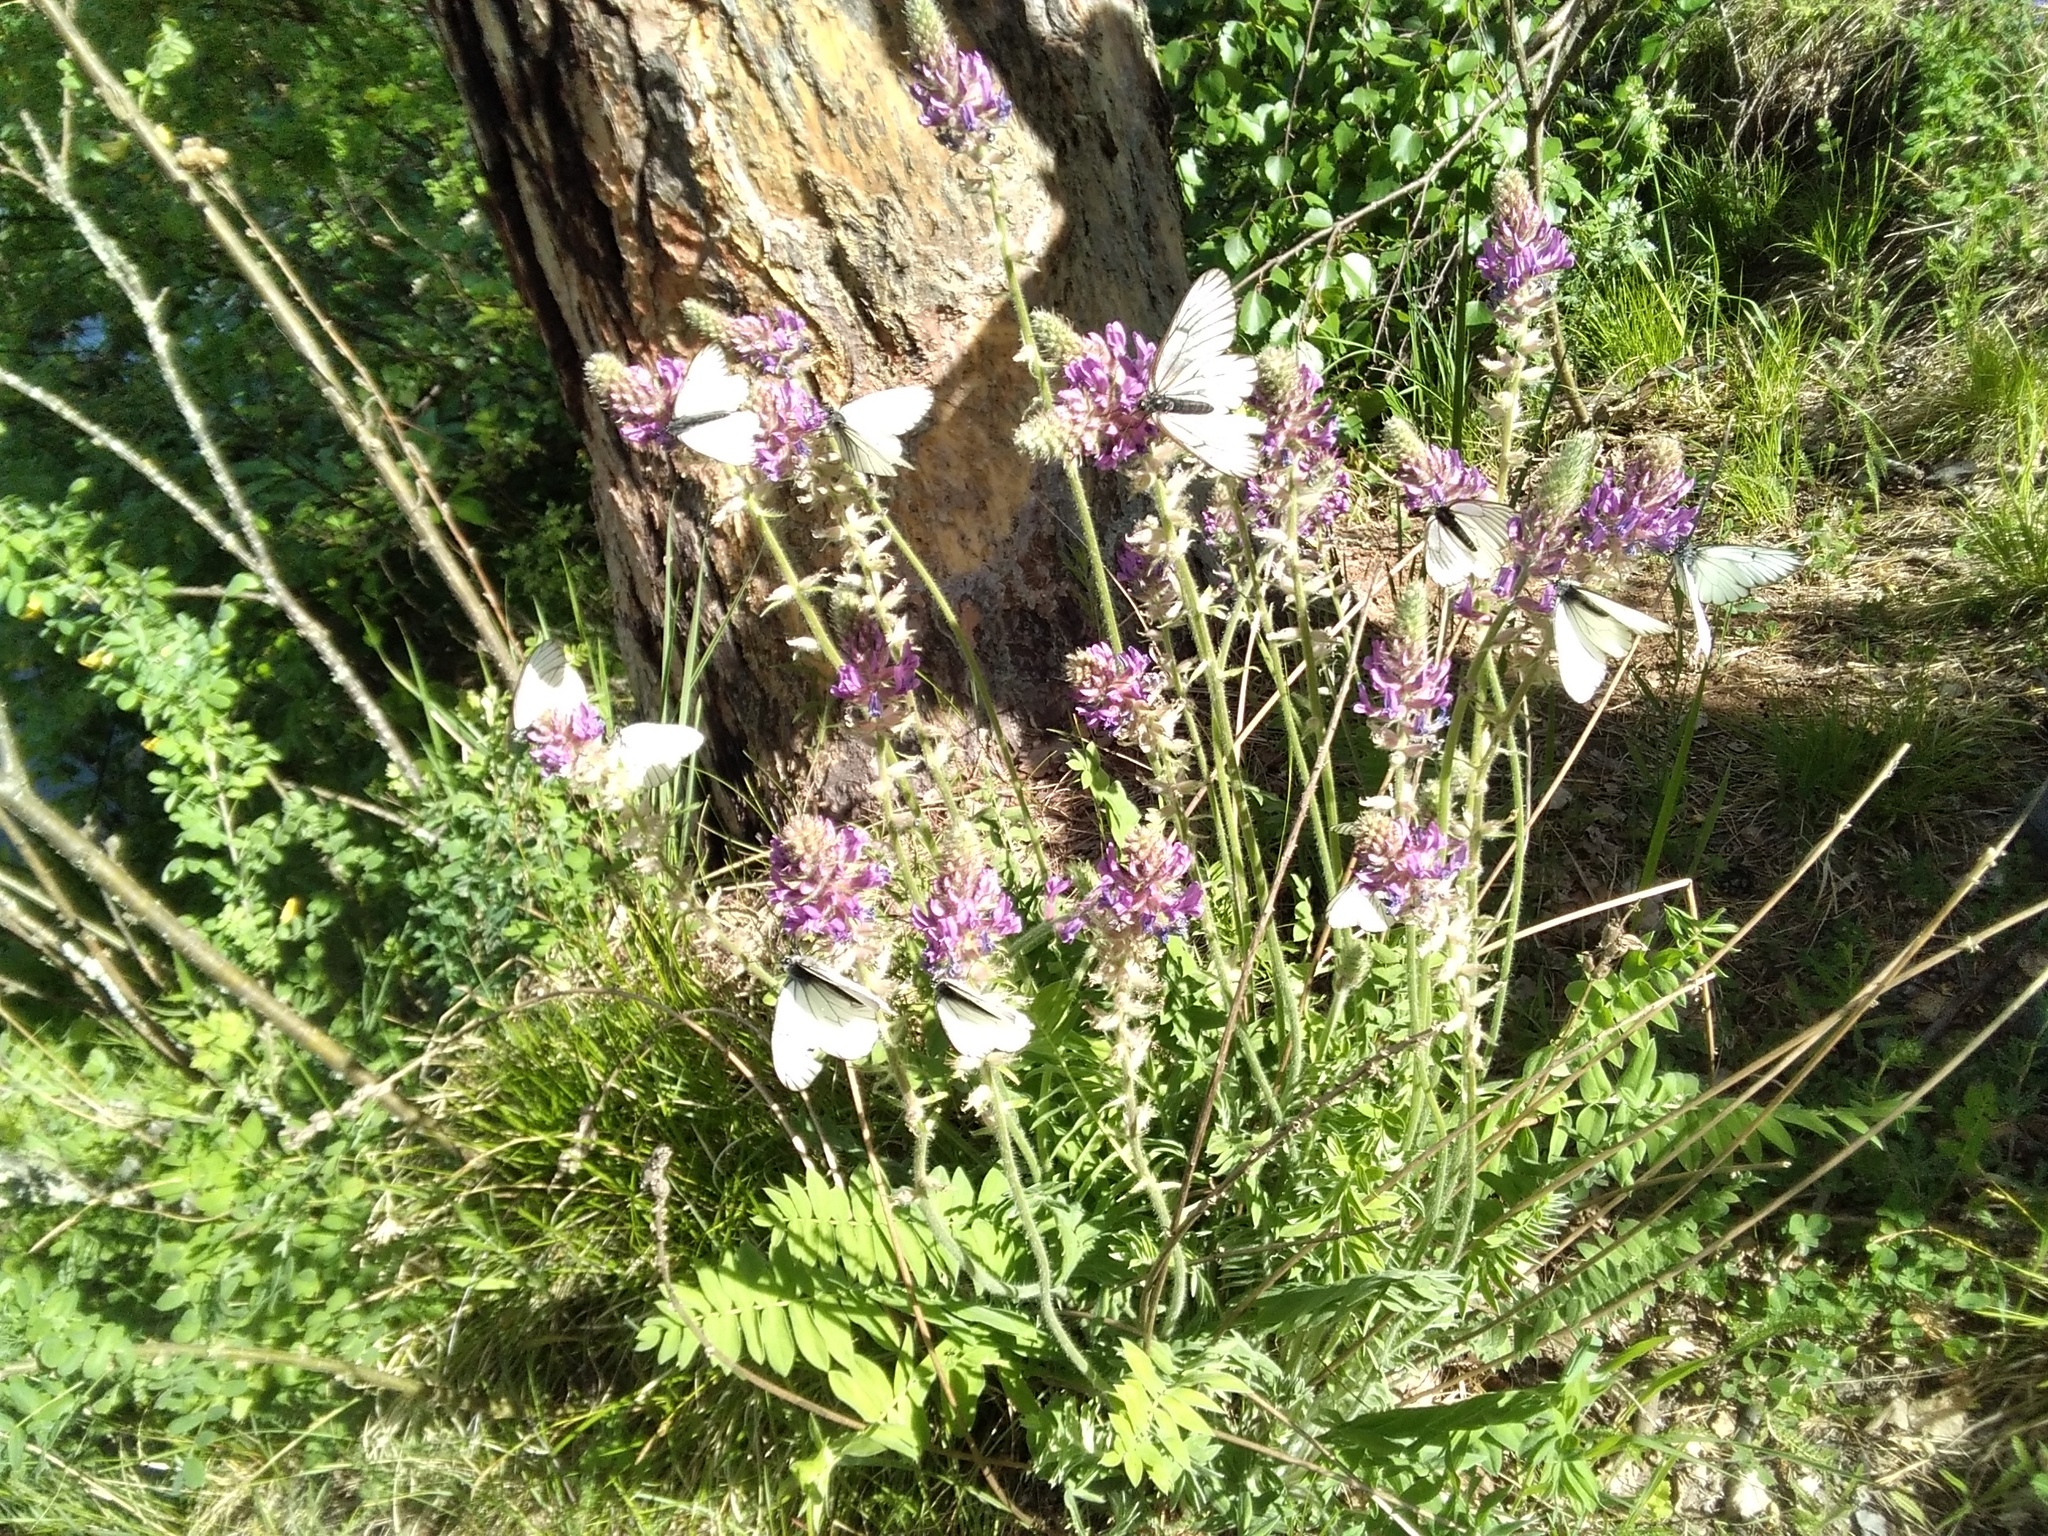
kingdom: Plantae
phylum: Tracheophyta
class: Magnoliopsida
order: Fabales
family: Fabaceae
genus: Oxytropis
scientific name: Oxytropis campanulata
